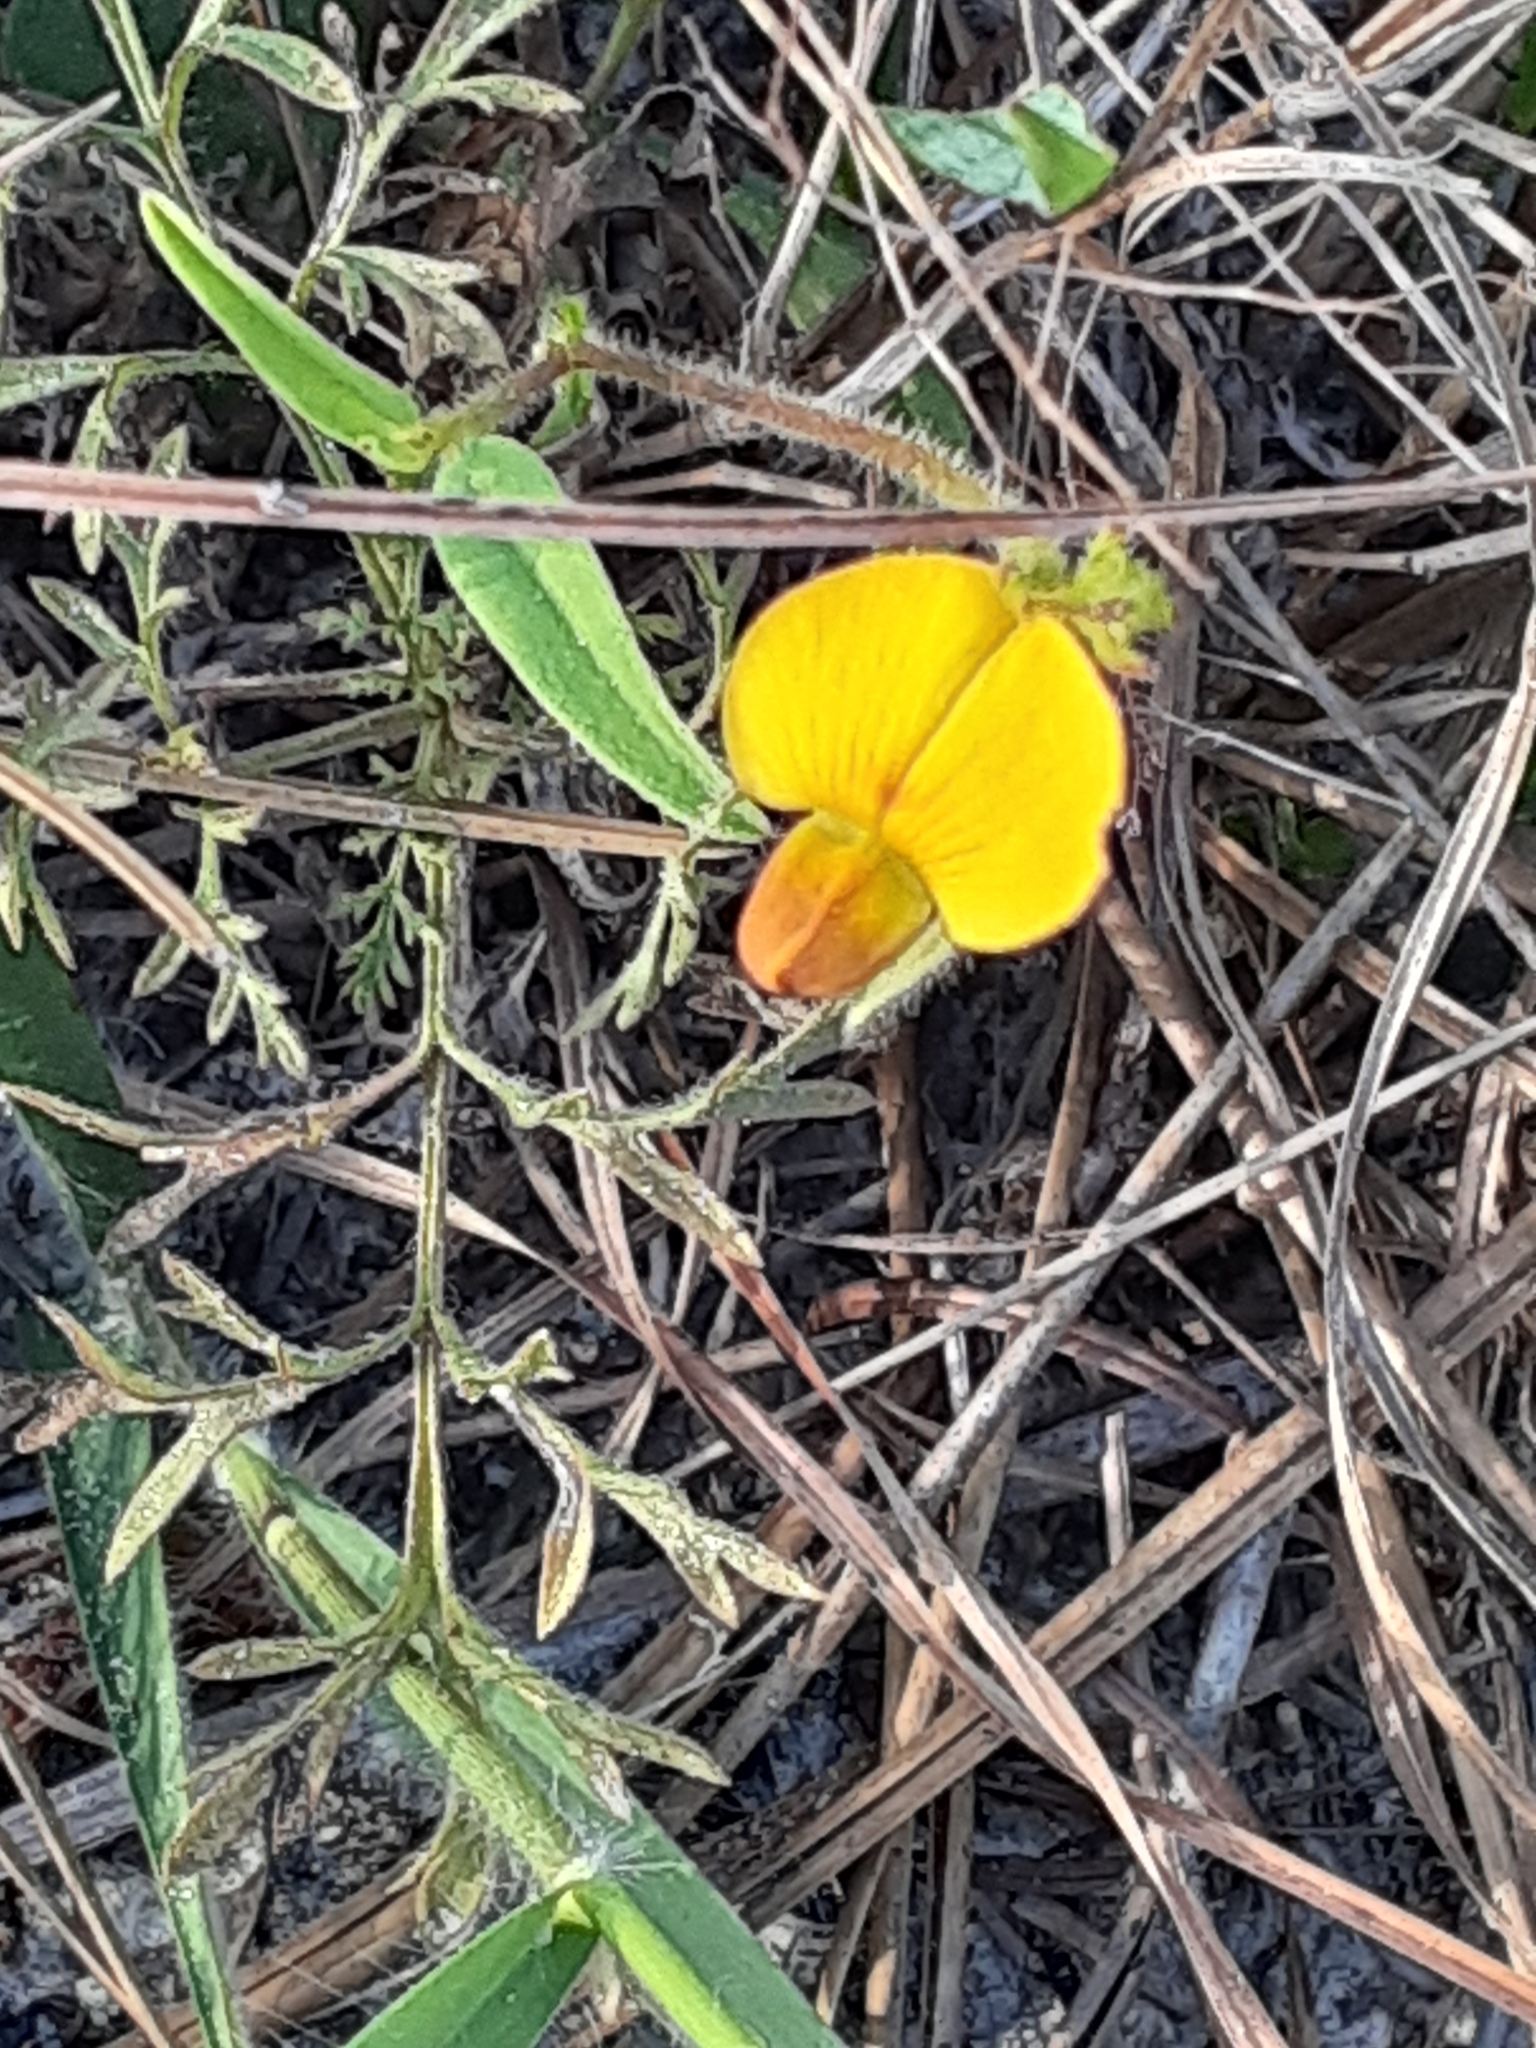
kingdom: Plantae
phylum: Tracheophyta
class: Magnoliopsida
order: Fabales
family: Fabaceae
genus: Crotalaria
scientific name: Crotalaria rotundifolia
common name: Prostrate rattlebox
